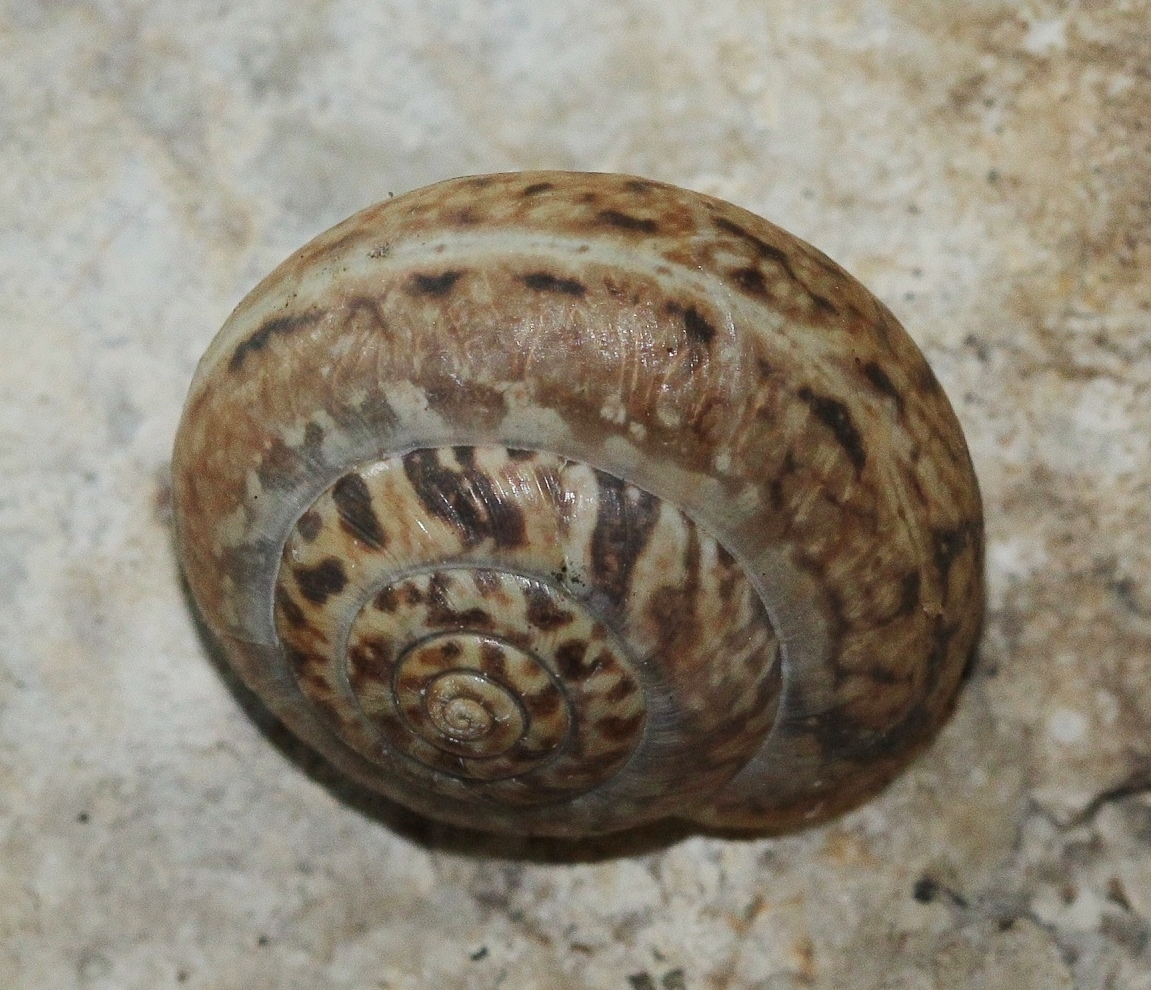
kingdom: Animalia
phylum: Mollusca
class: Gastropoda
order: Stylommatophora
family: Hygromiidae
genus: Monacha
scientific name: Monacha fruticola
